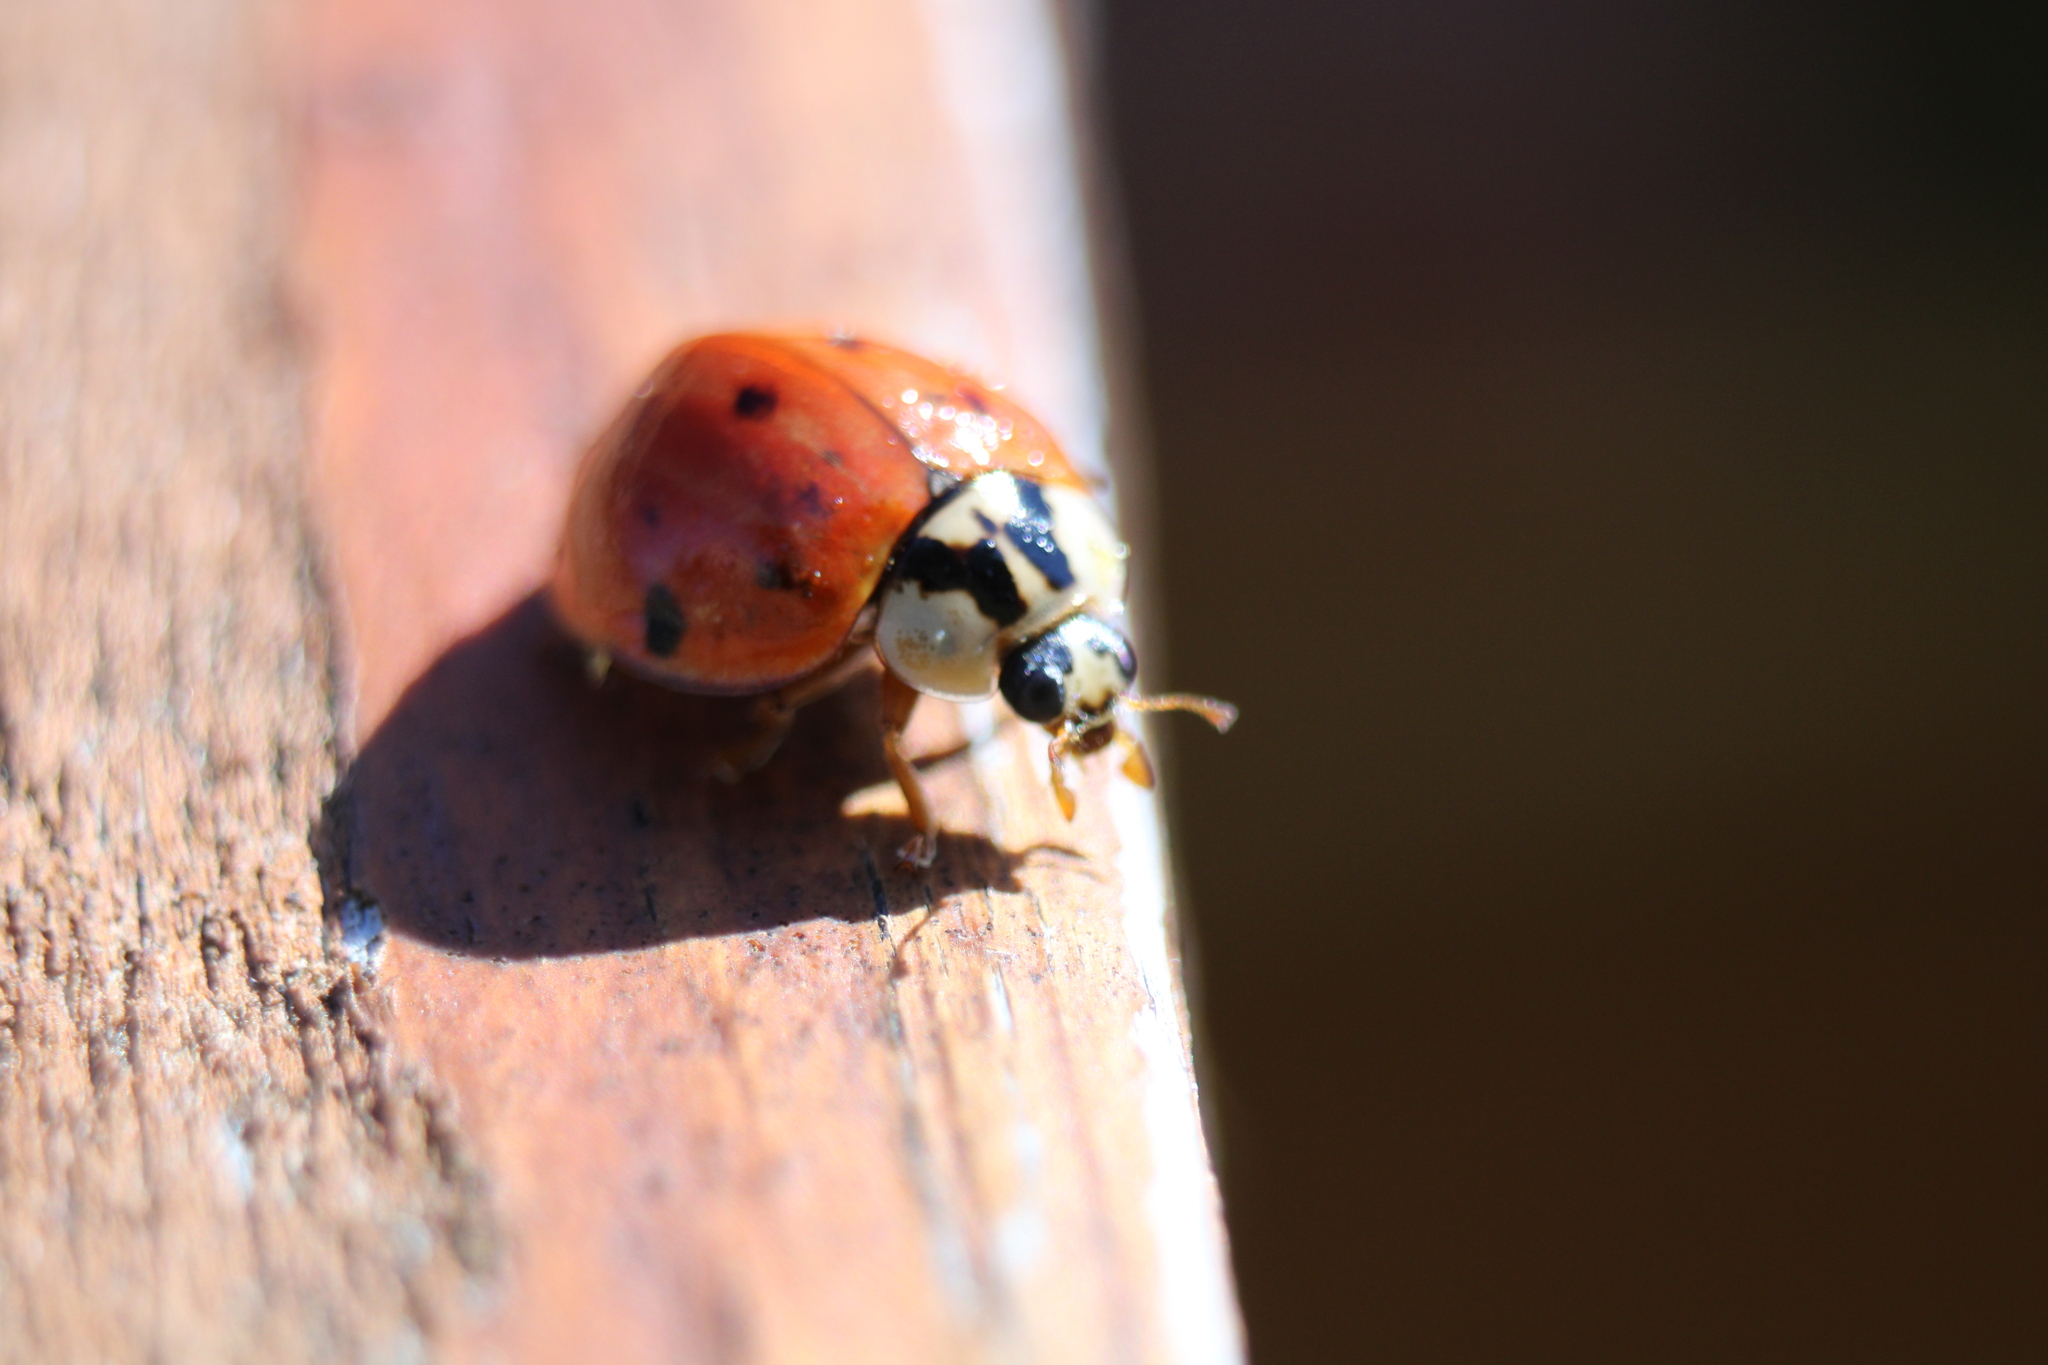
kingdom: Animalia
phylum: Arthropoda
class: Insecta
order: Coleoptera
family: Coccinellidae
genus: Harmonia
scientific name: Harmonia axyridis
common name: Harlequin ladybird
